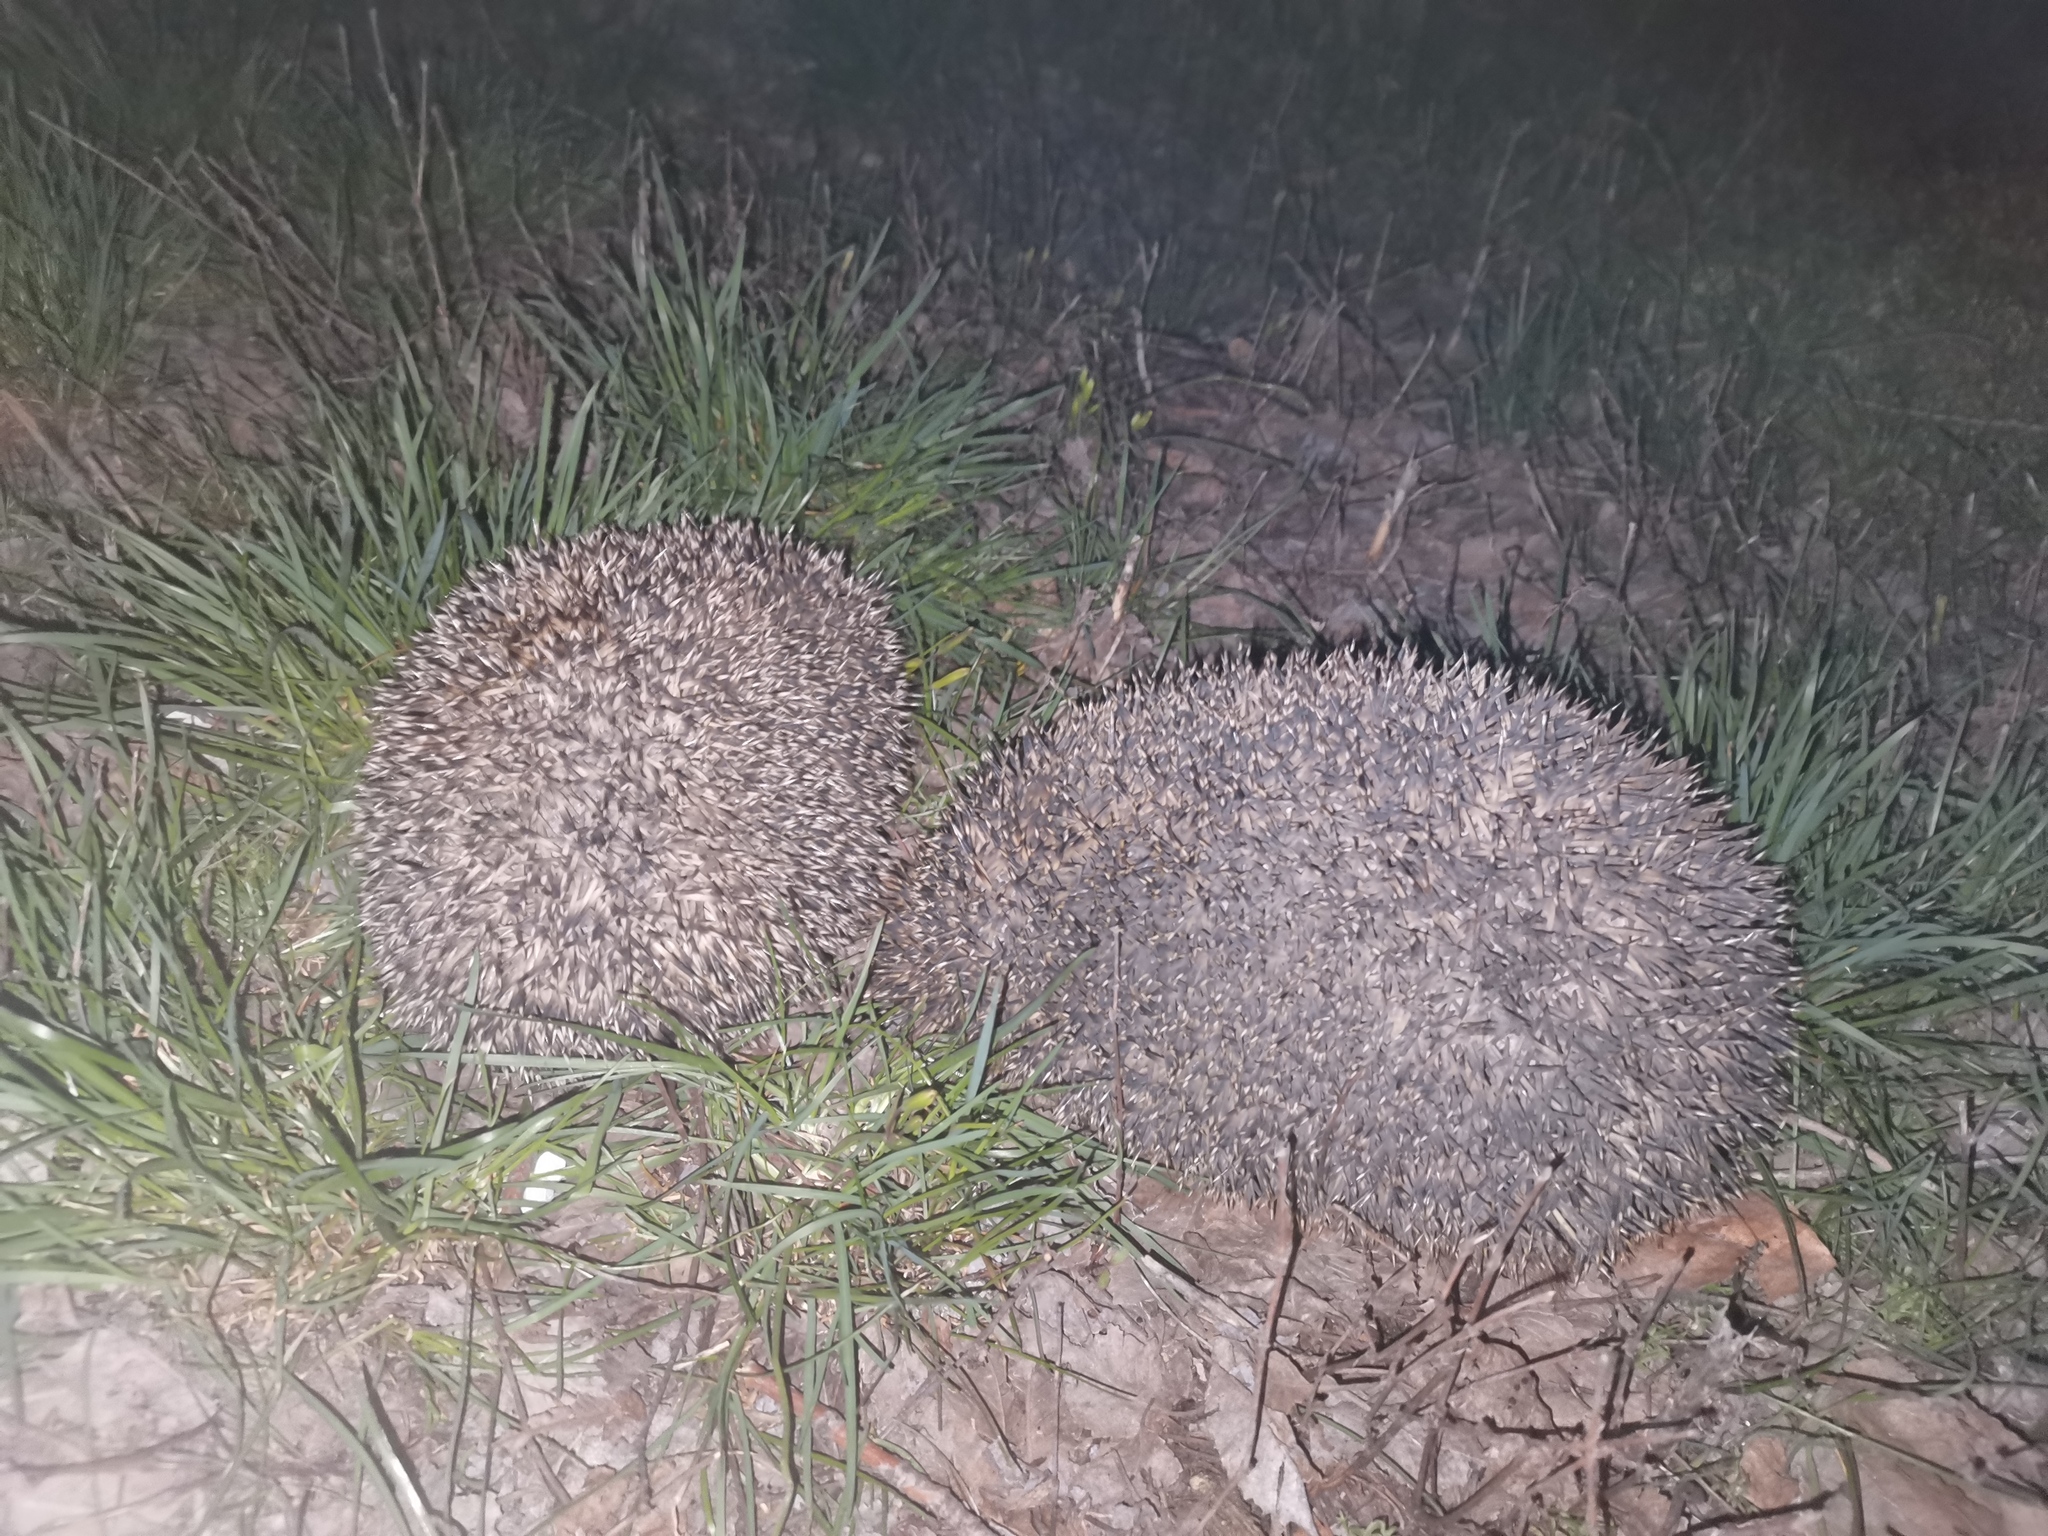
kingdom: Animalia
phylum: Chordata
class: Mammalia
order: Erinaceomorpha
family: Erinaceidae
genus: Erinaceus
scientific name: Erinaceus roumanicus
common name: Northern white-breasted hedgehog
